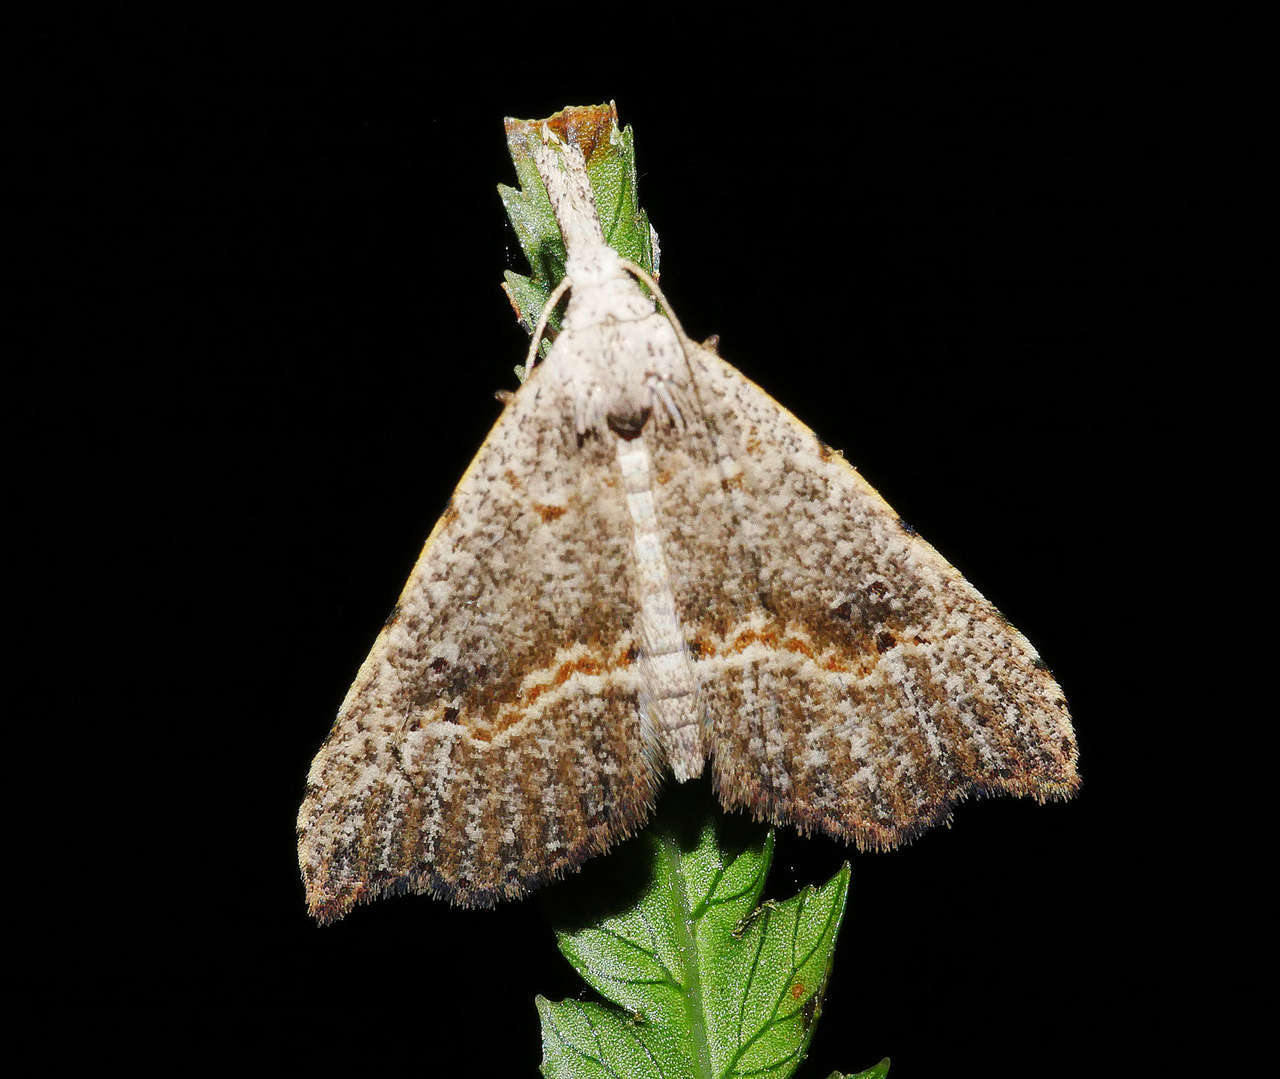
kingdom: Animalia
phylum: Arthropoda
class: Insecta
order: Lepidoptera
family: Erebidae
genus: Trigonistis
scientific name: Trigonistis asthenopa
